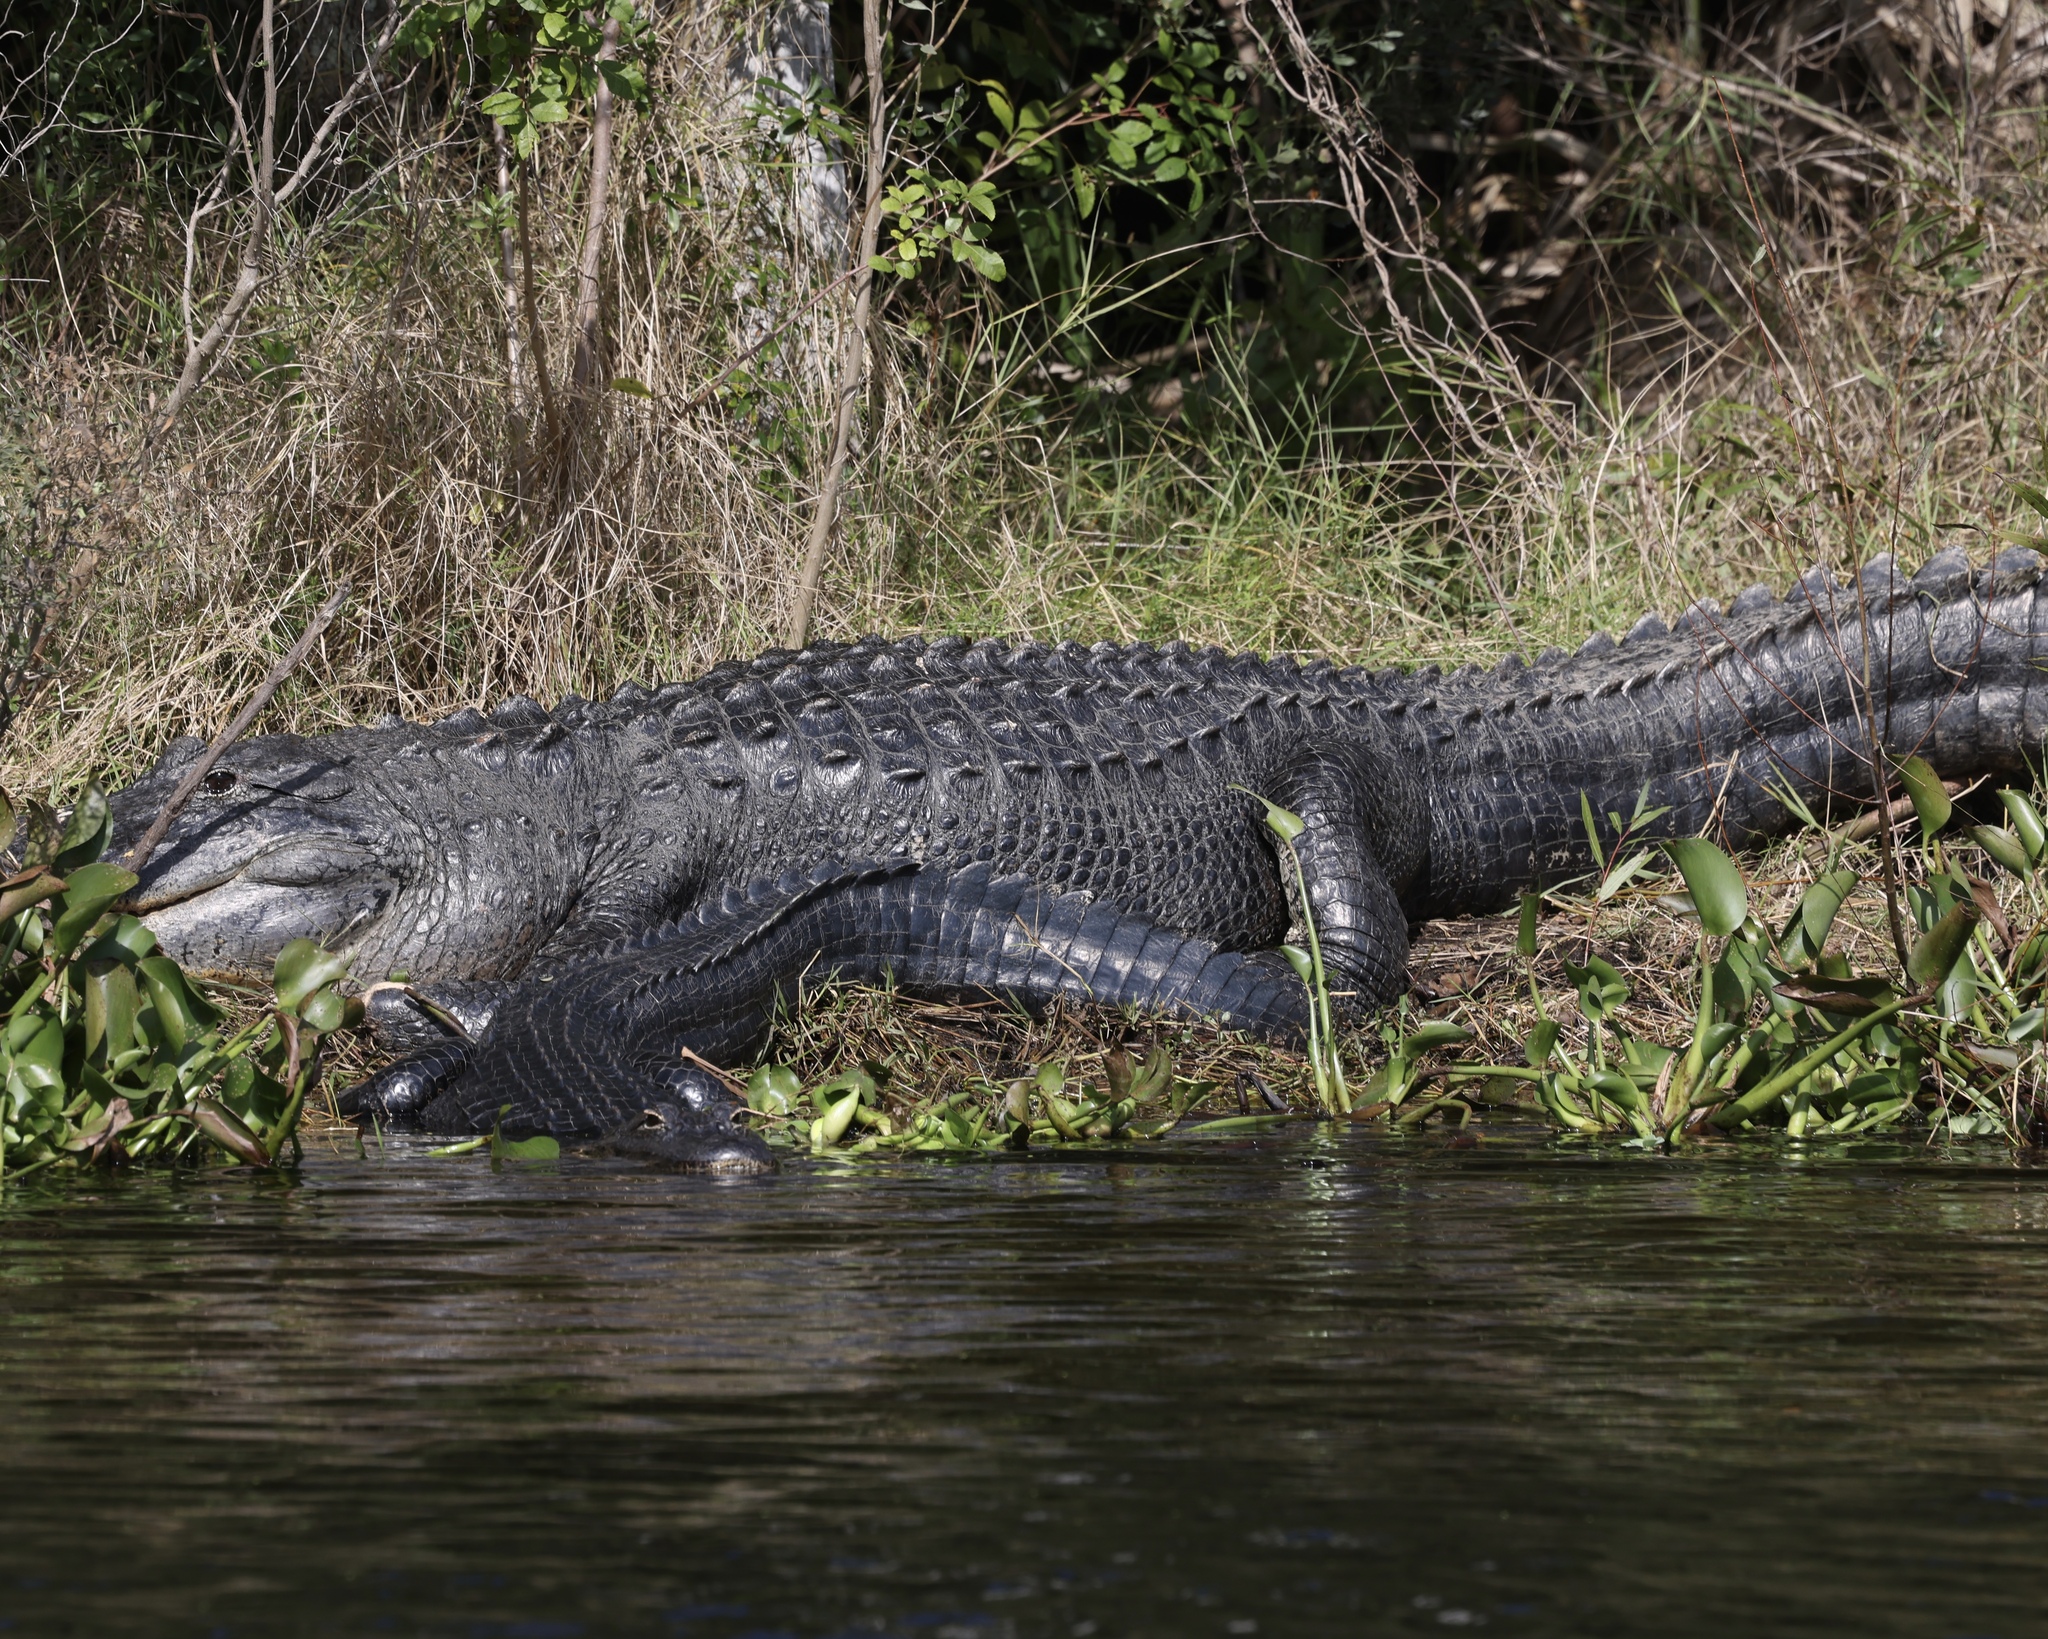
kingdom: Animalia
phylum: Chordata
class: Crocodylia
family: Alligatoridae
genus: Alligator
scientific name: Alligator mississippiensis
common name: American alligator
